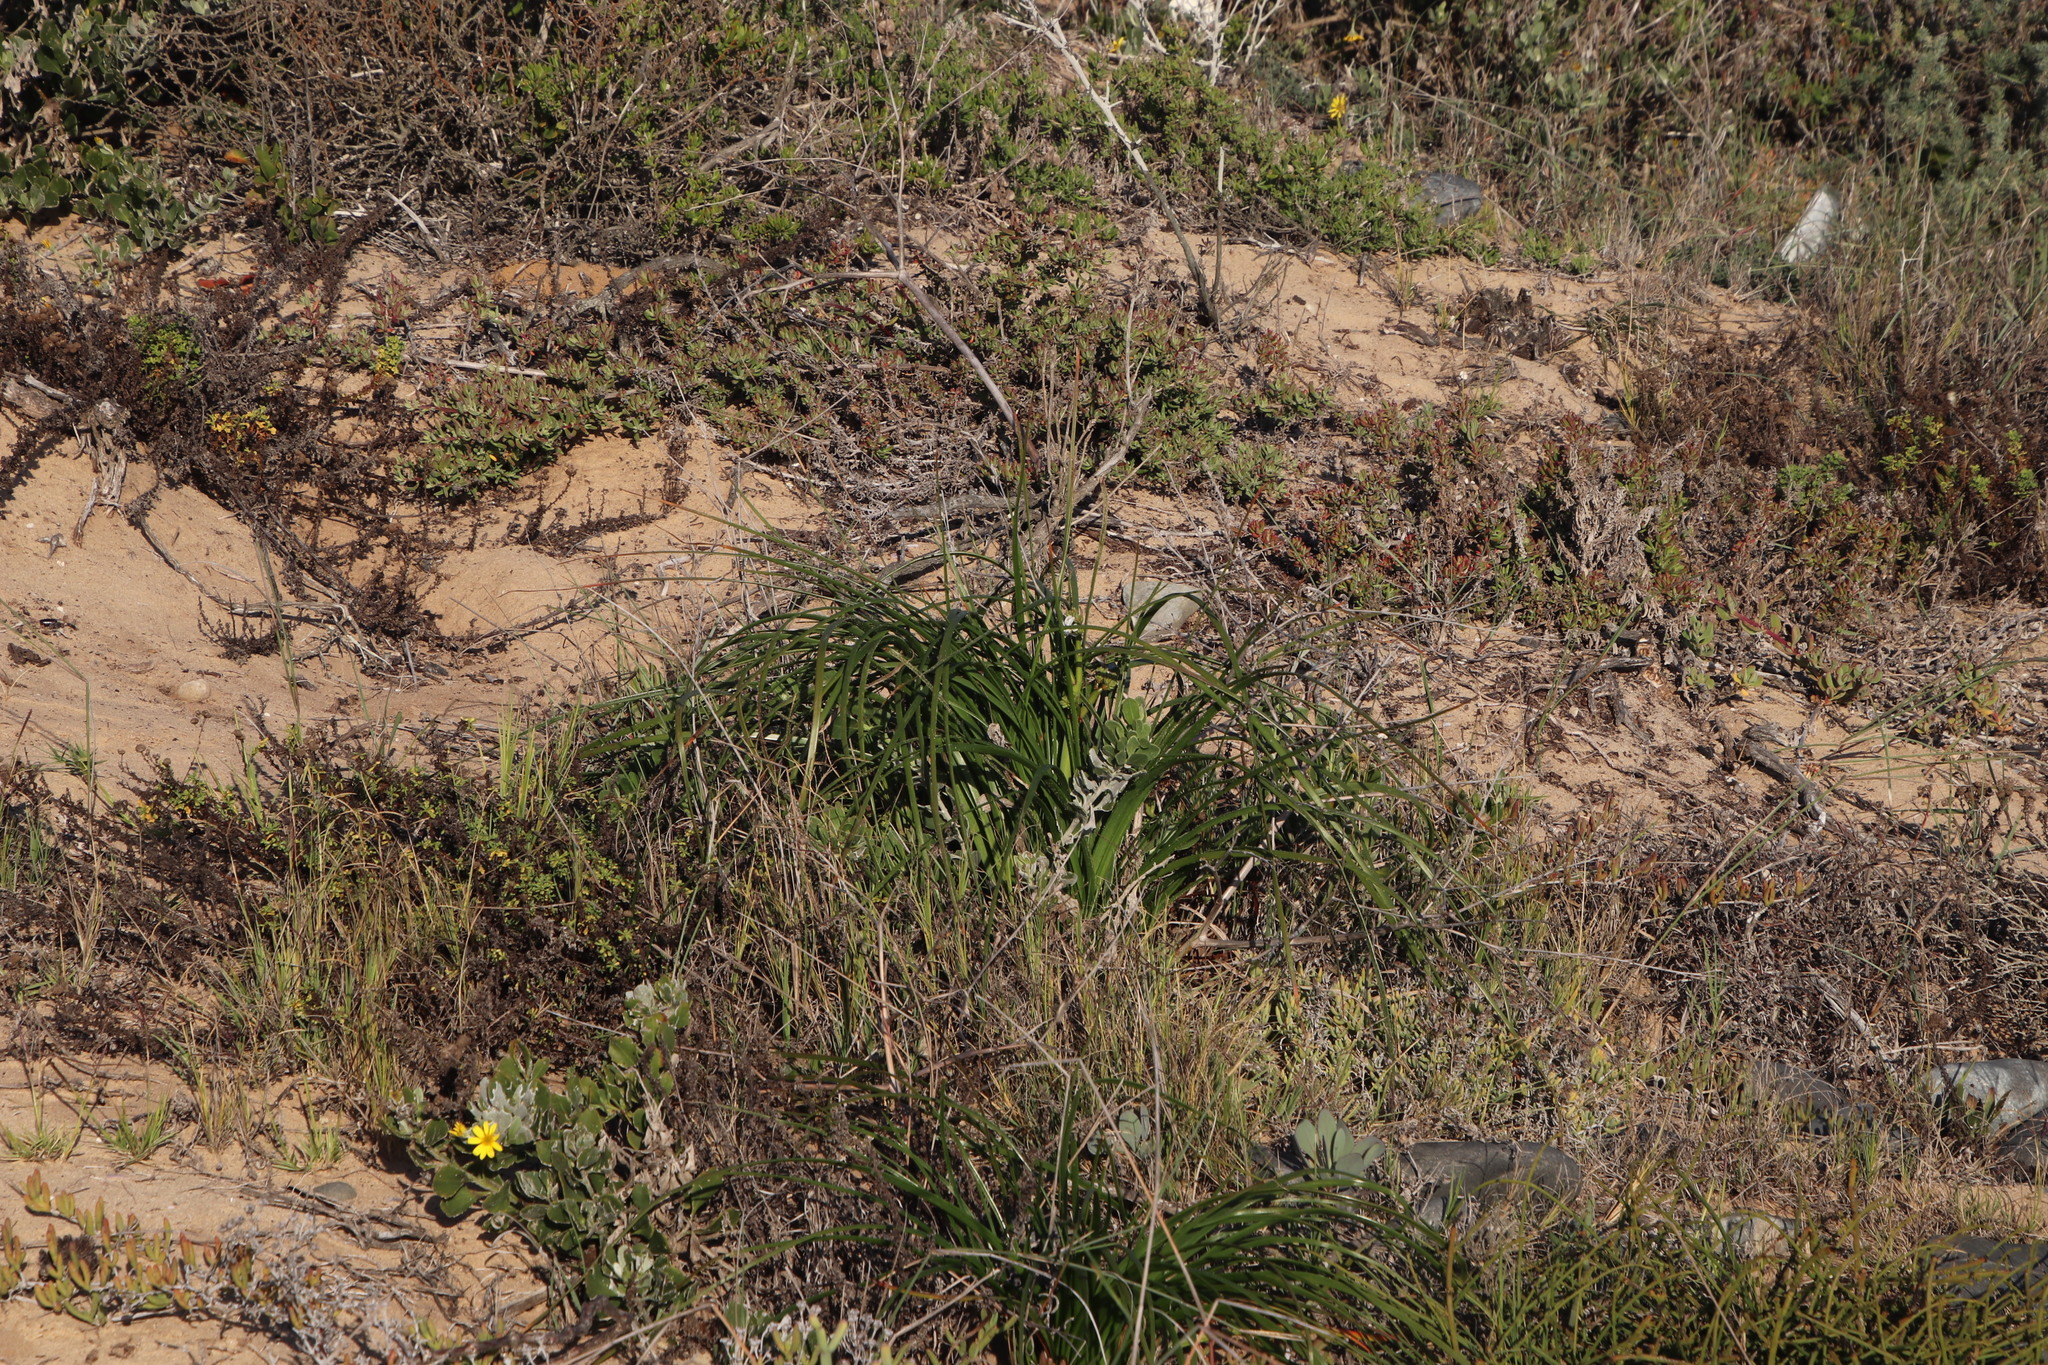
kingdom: Plantae
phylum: Tracheophyta
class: Liliopsida
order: Asparagales
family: Asphodelaceae
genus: Trachyandra
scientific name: Trachyandra ciliata
